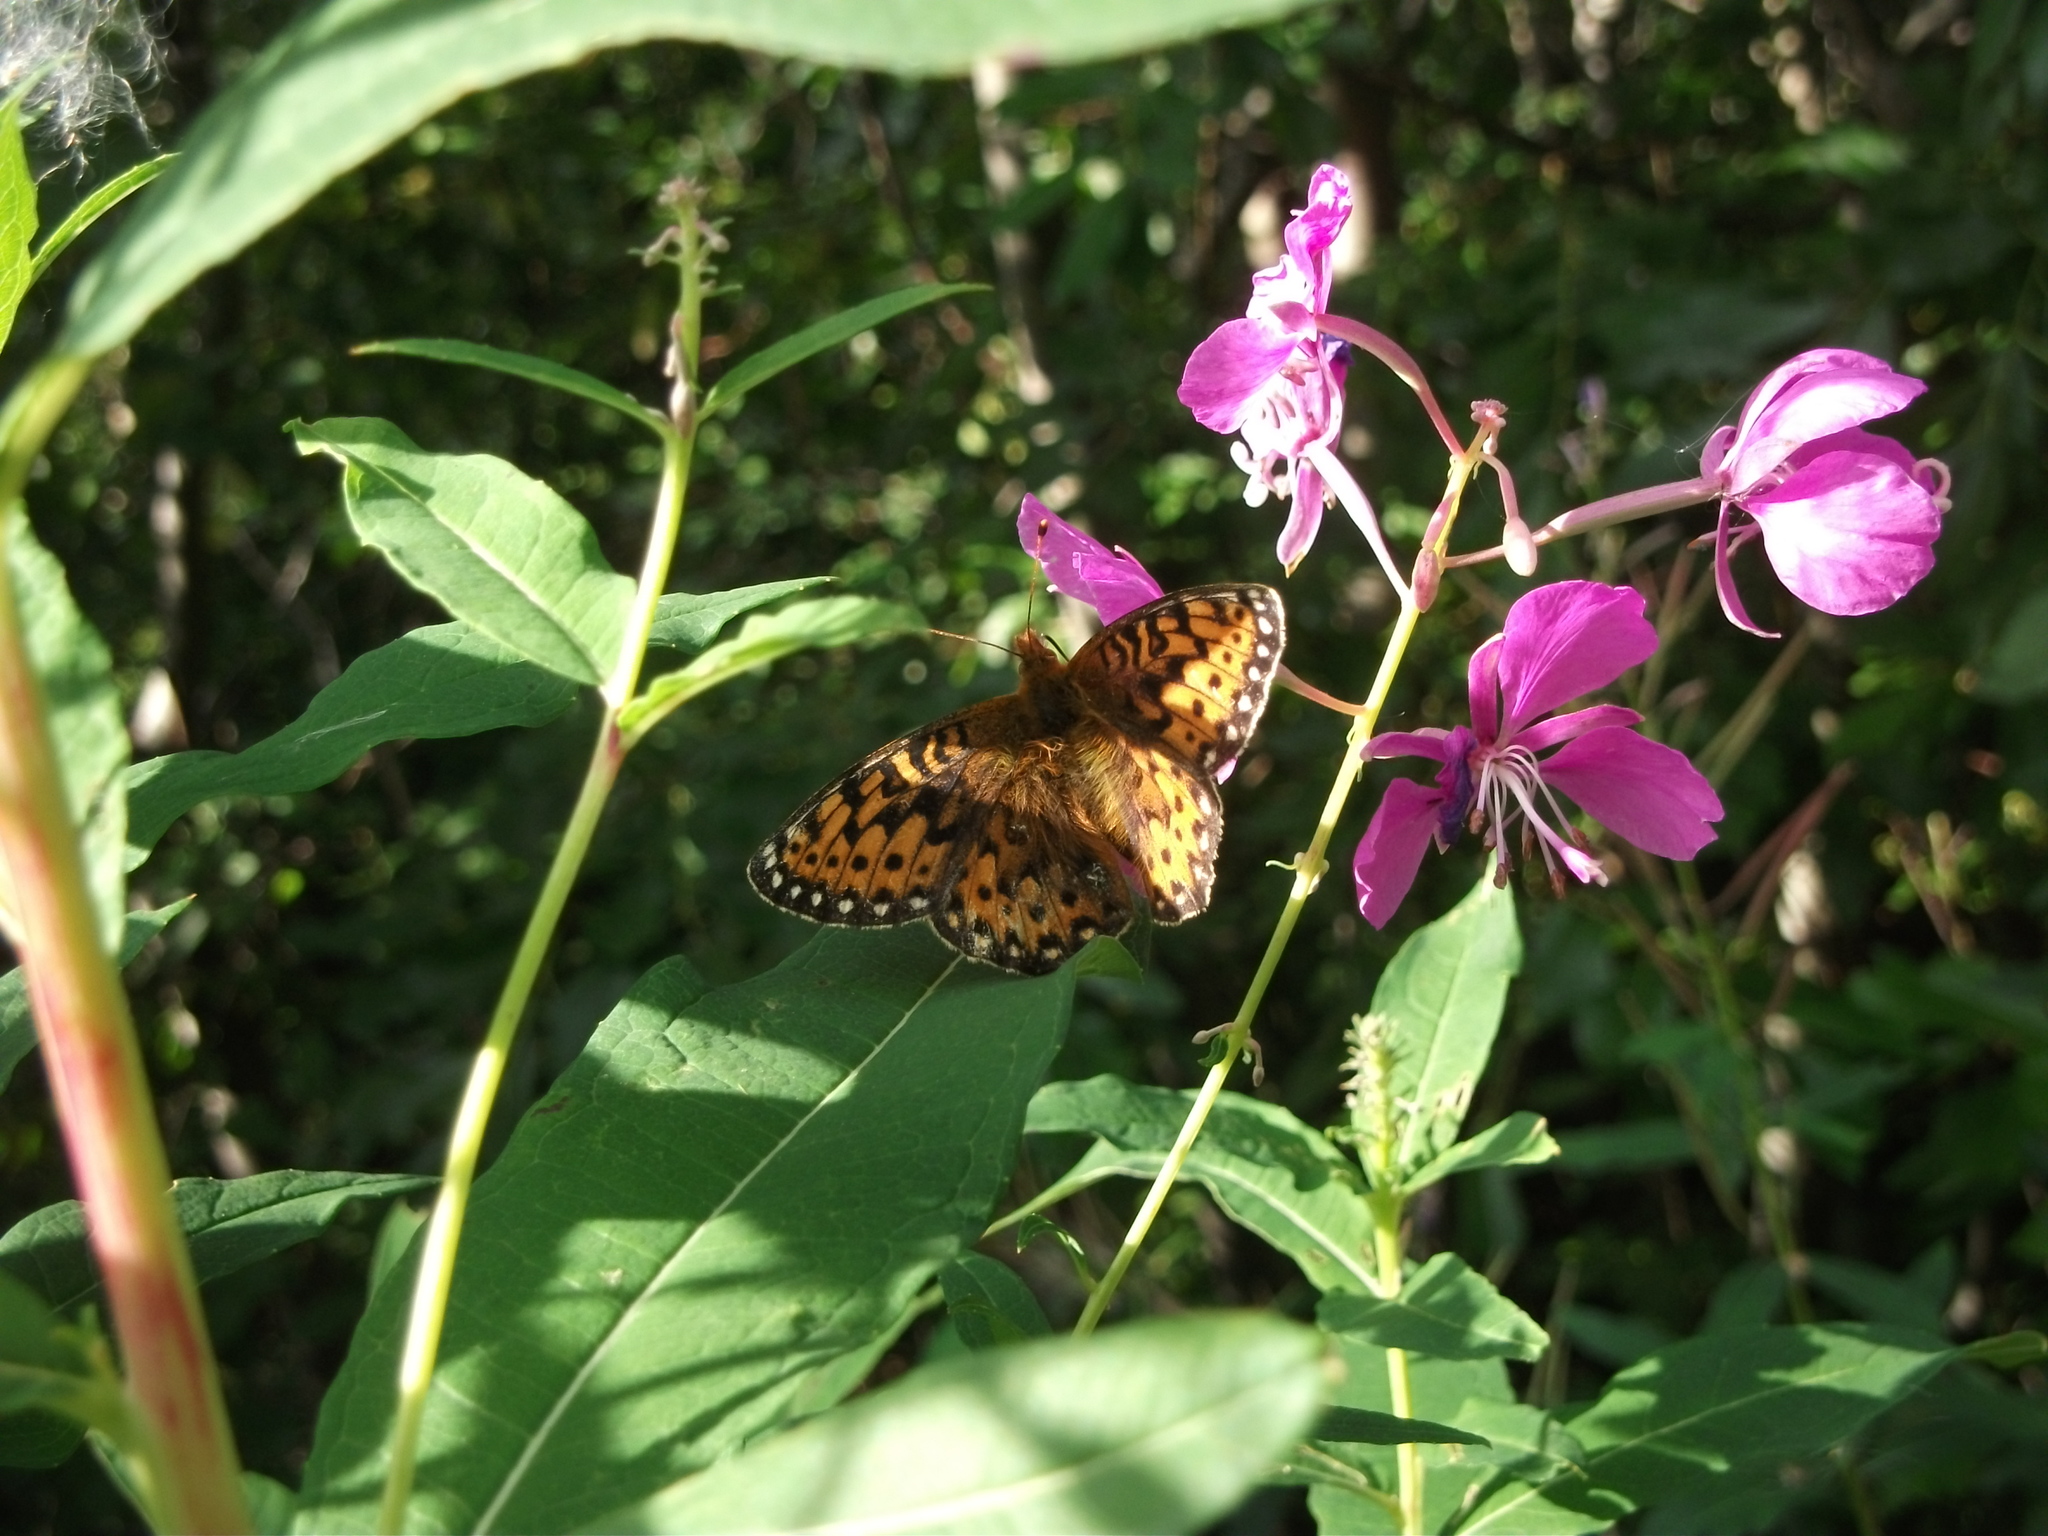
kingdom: Animalia
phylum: Arthropoda
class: Insecta
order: Lepidoptera
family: Nymphalidae
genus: Speyeria
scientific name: Speyeria mormonia
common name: Mormon fritillary
